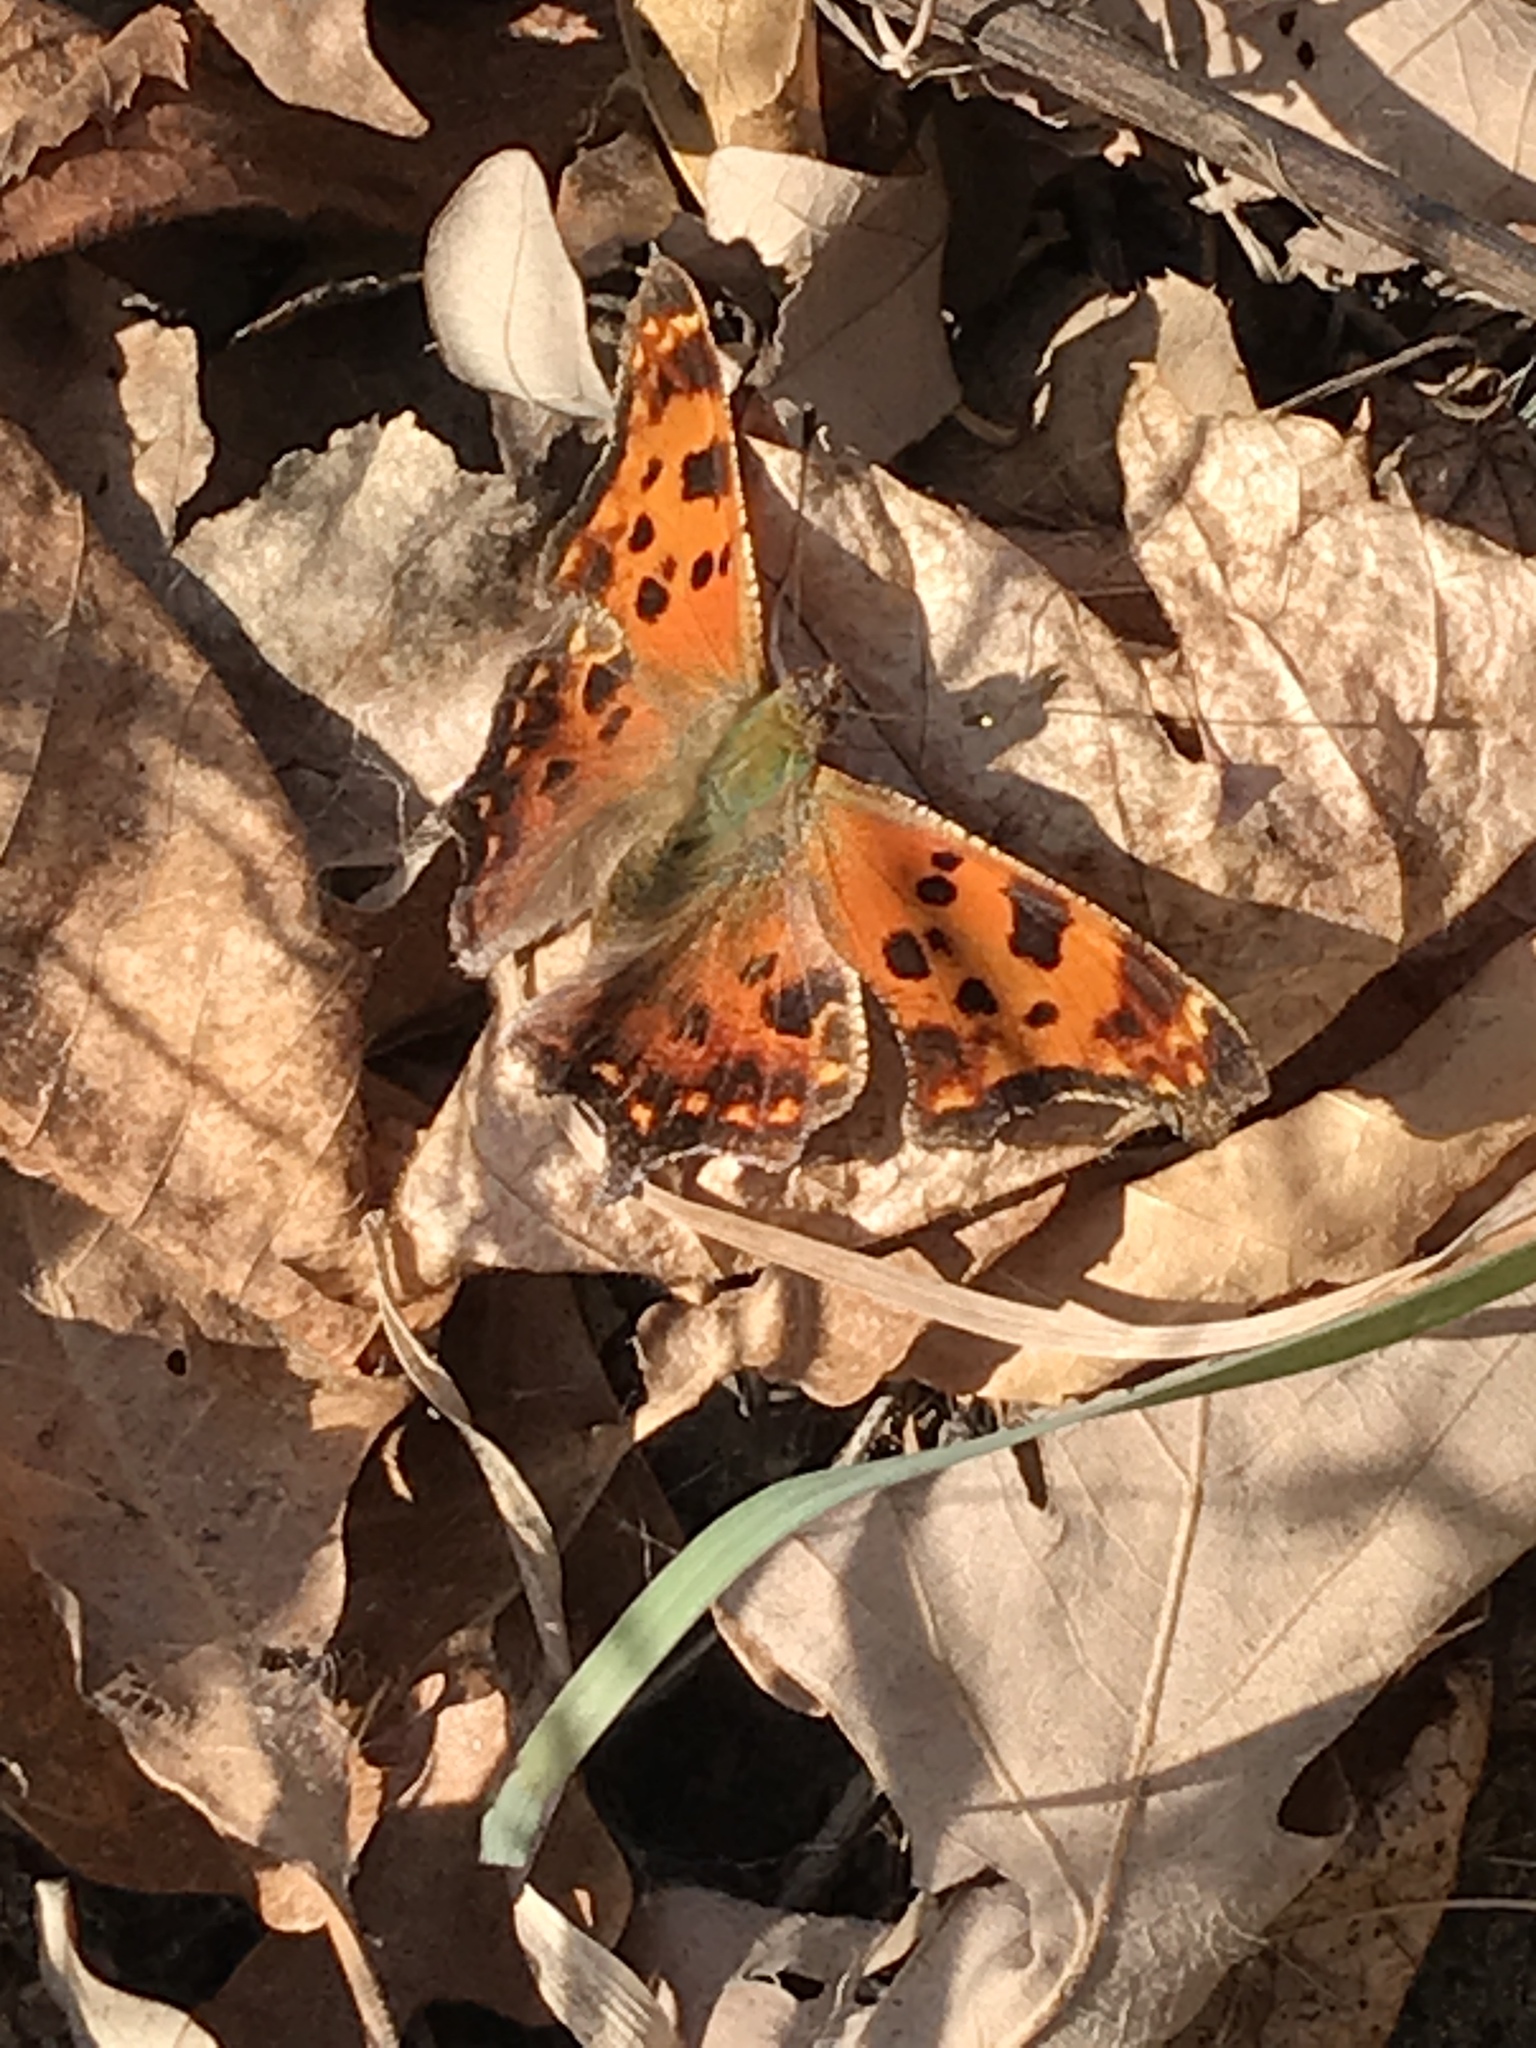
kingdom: Animalia
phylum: Arthropoda
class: Insecta
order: Lepidoptera
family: Nymphalidae
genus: Polygonia
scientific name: Polygonia comma
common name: Eastern comma
